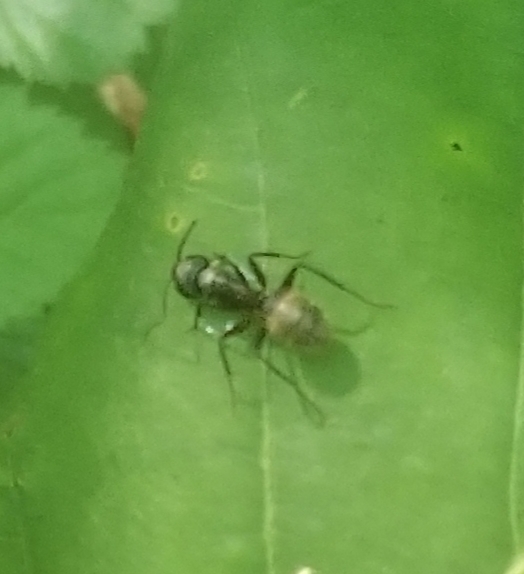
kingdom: Animalia
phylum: Arthropoda
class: Insecta
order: Hymenoptera
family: Formicidae
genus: Camponotus
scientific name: Camponotus pennsylvanicus
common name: Black carpenter ant
